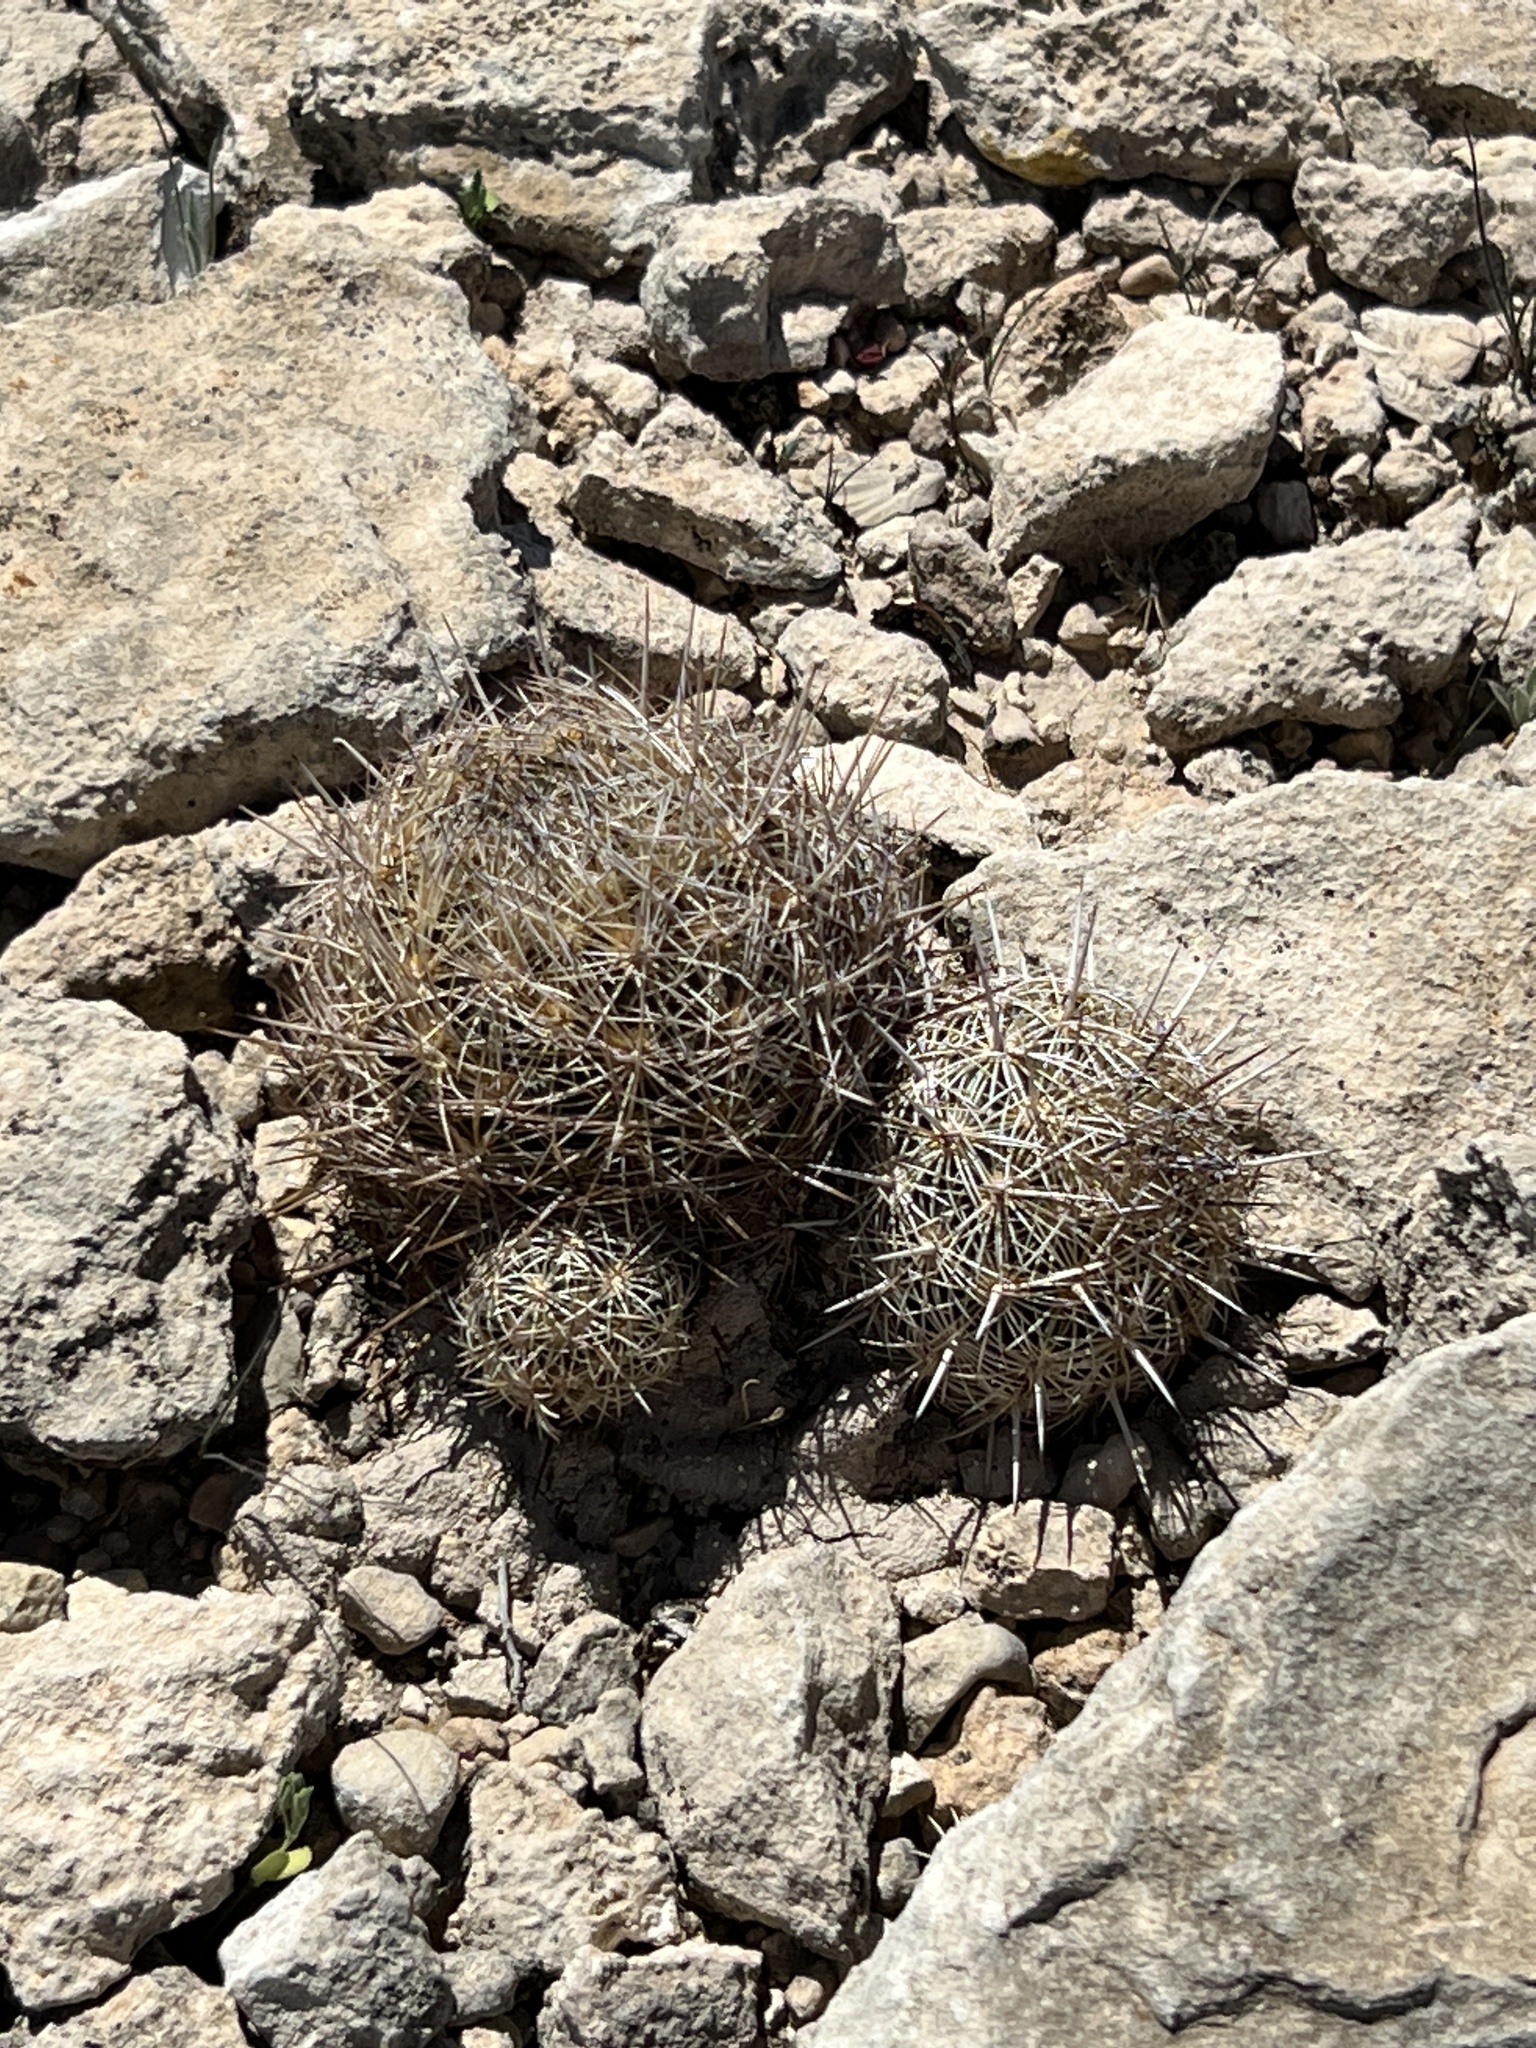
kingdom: Plantae
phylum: Tracheophyta
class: Magnoliopsida
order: Caryophyllales
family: Cactaceae
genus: Coryphantha
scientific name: Coryphantha echinus
